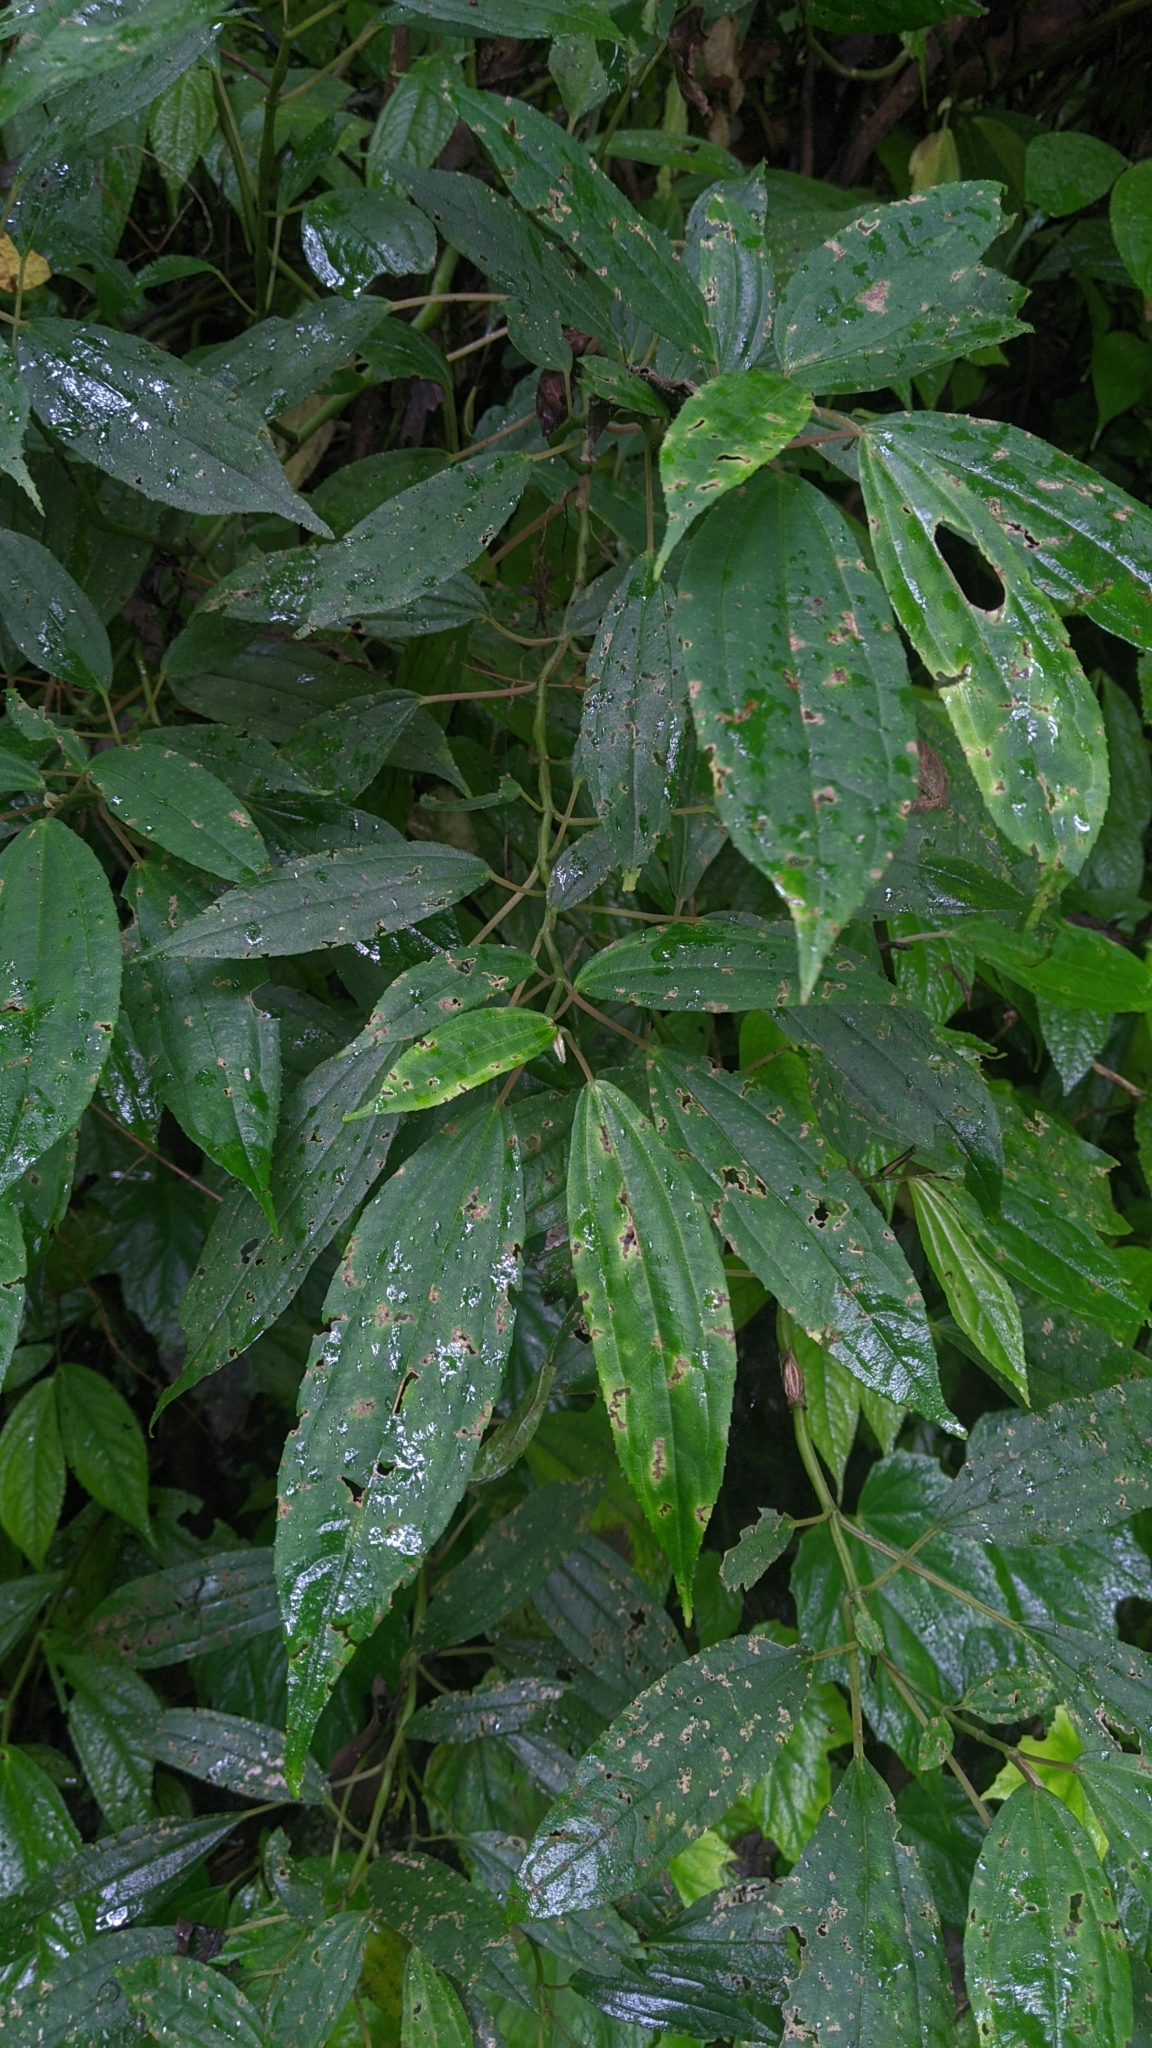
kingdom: Plantae
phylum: Tracheophyta
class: Magnoliopsida
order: Rosales
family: Urticaceae
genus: Pilea
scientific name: Pilea funkikensis
